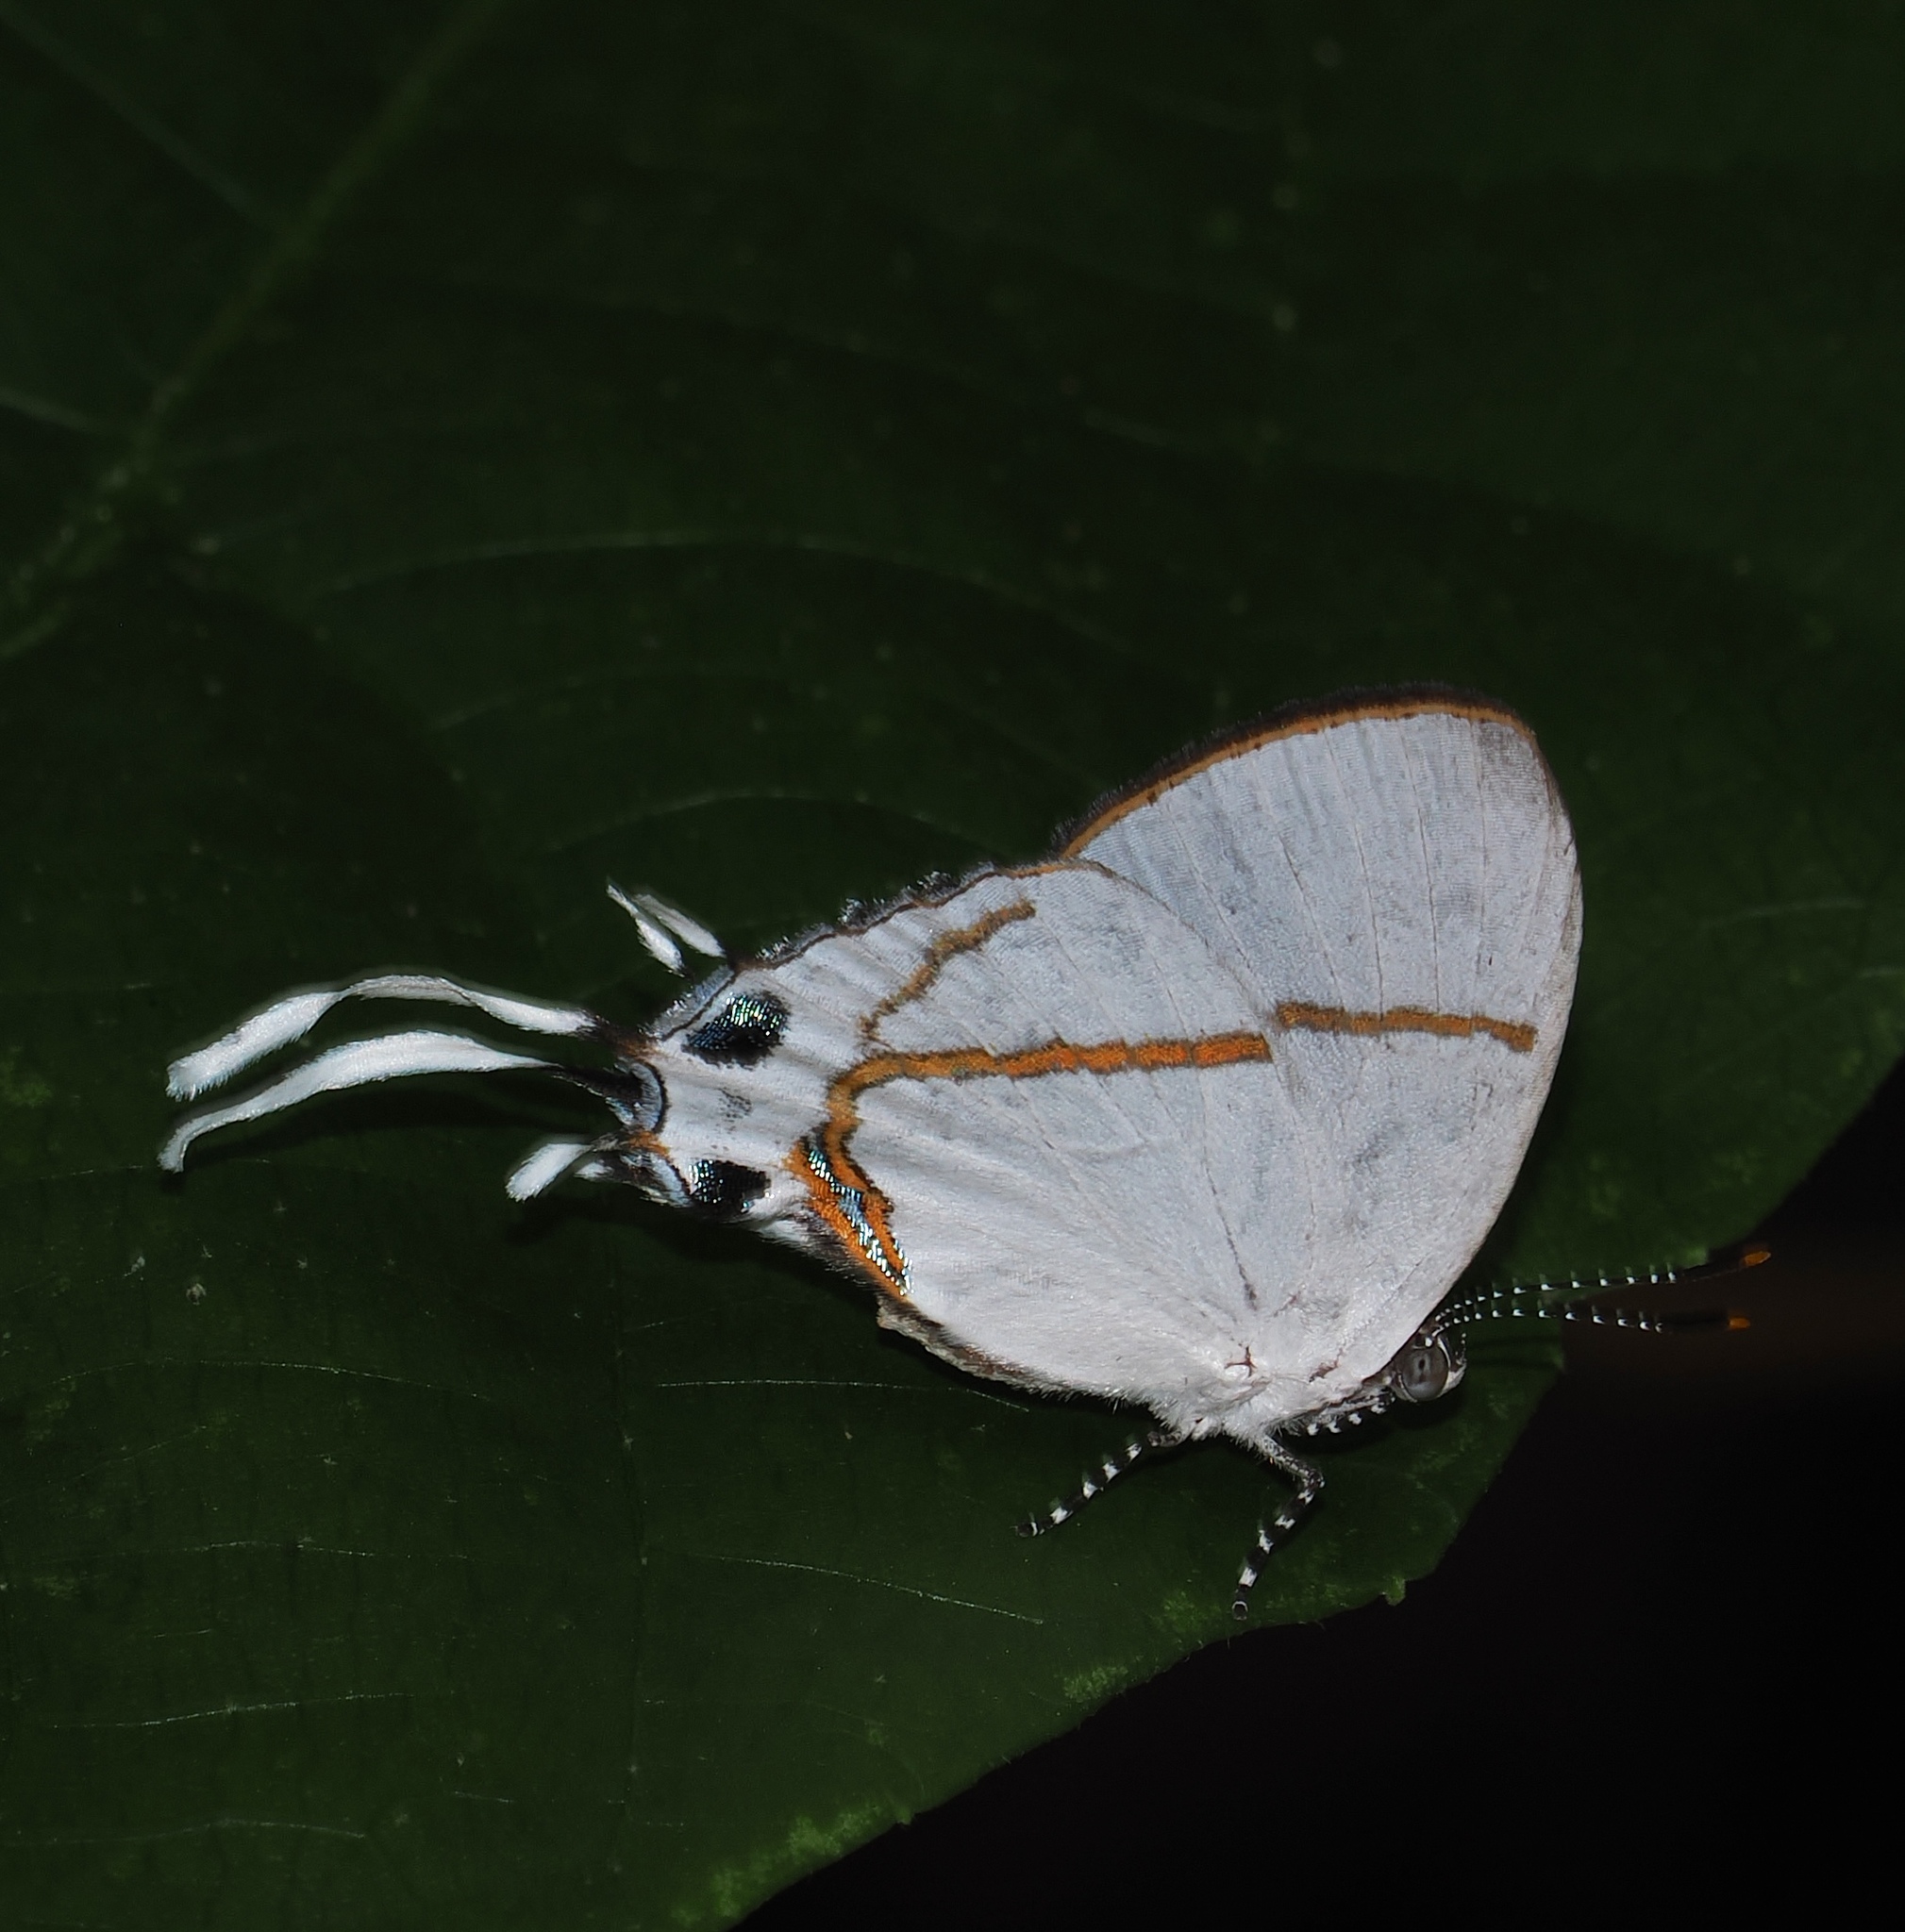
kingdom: Animalia
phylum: Arthropoda
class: Insecta
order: Lepidoptera
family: Lycaenidae
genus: Oxylides
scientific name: Oxylides faunus
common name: Common false head
